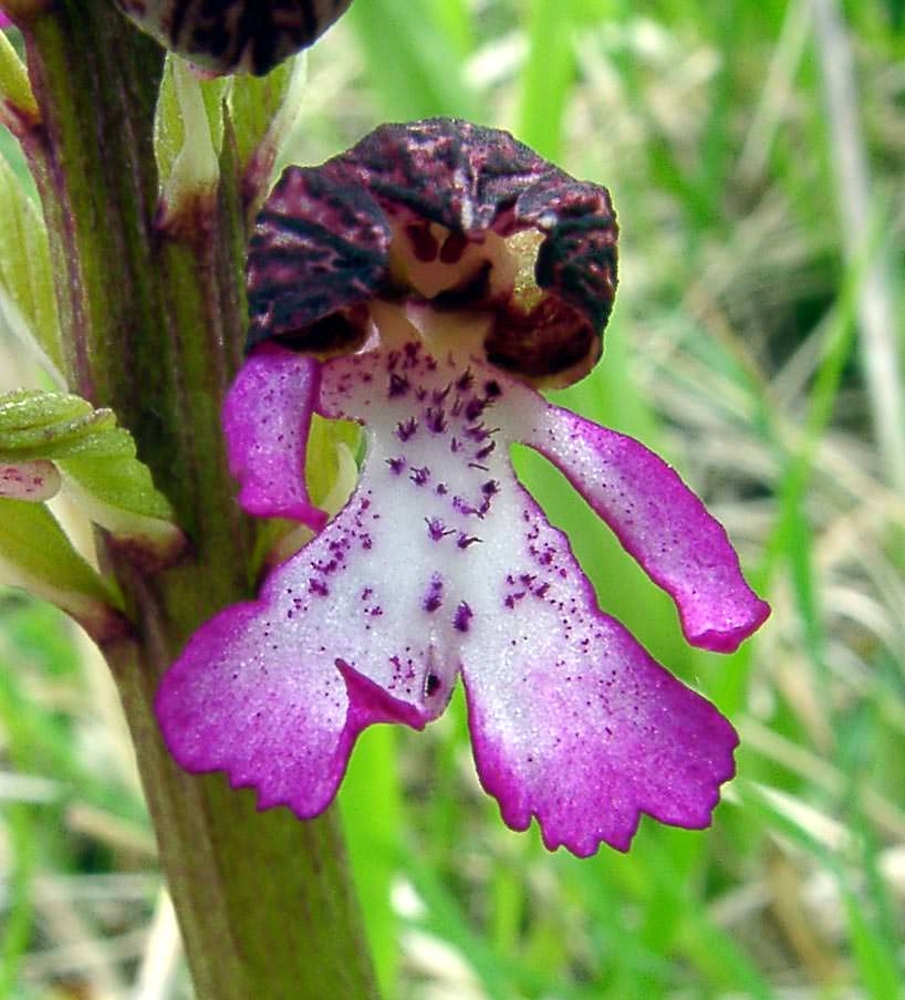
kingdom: Plantae
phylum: Tracheophyta
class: Liliopsida
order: Asparagales
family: Orchidaceae
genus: Orchis
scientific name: Orchis purpurea
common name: Lady orchid
